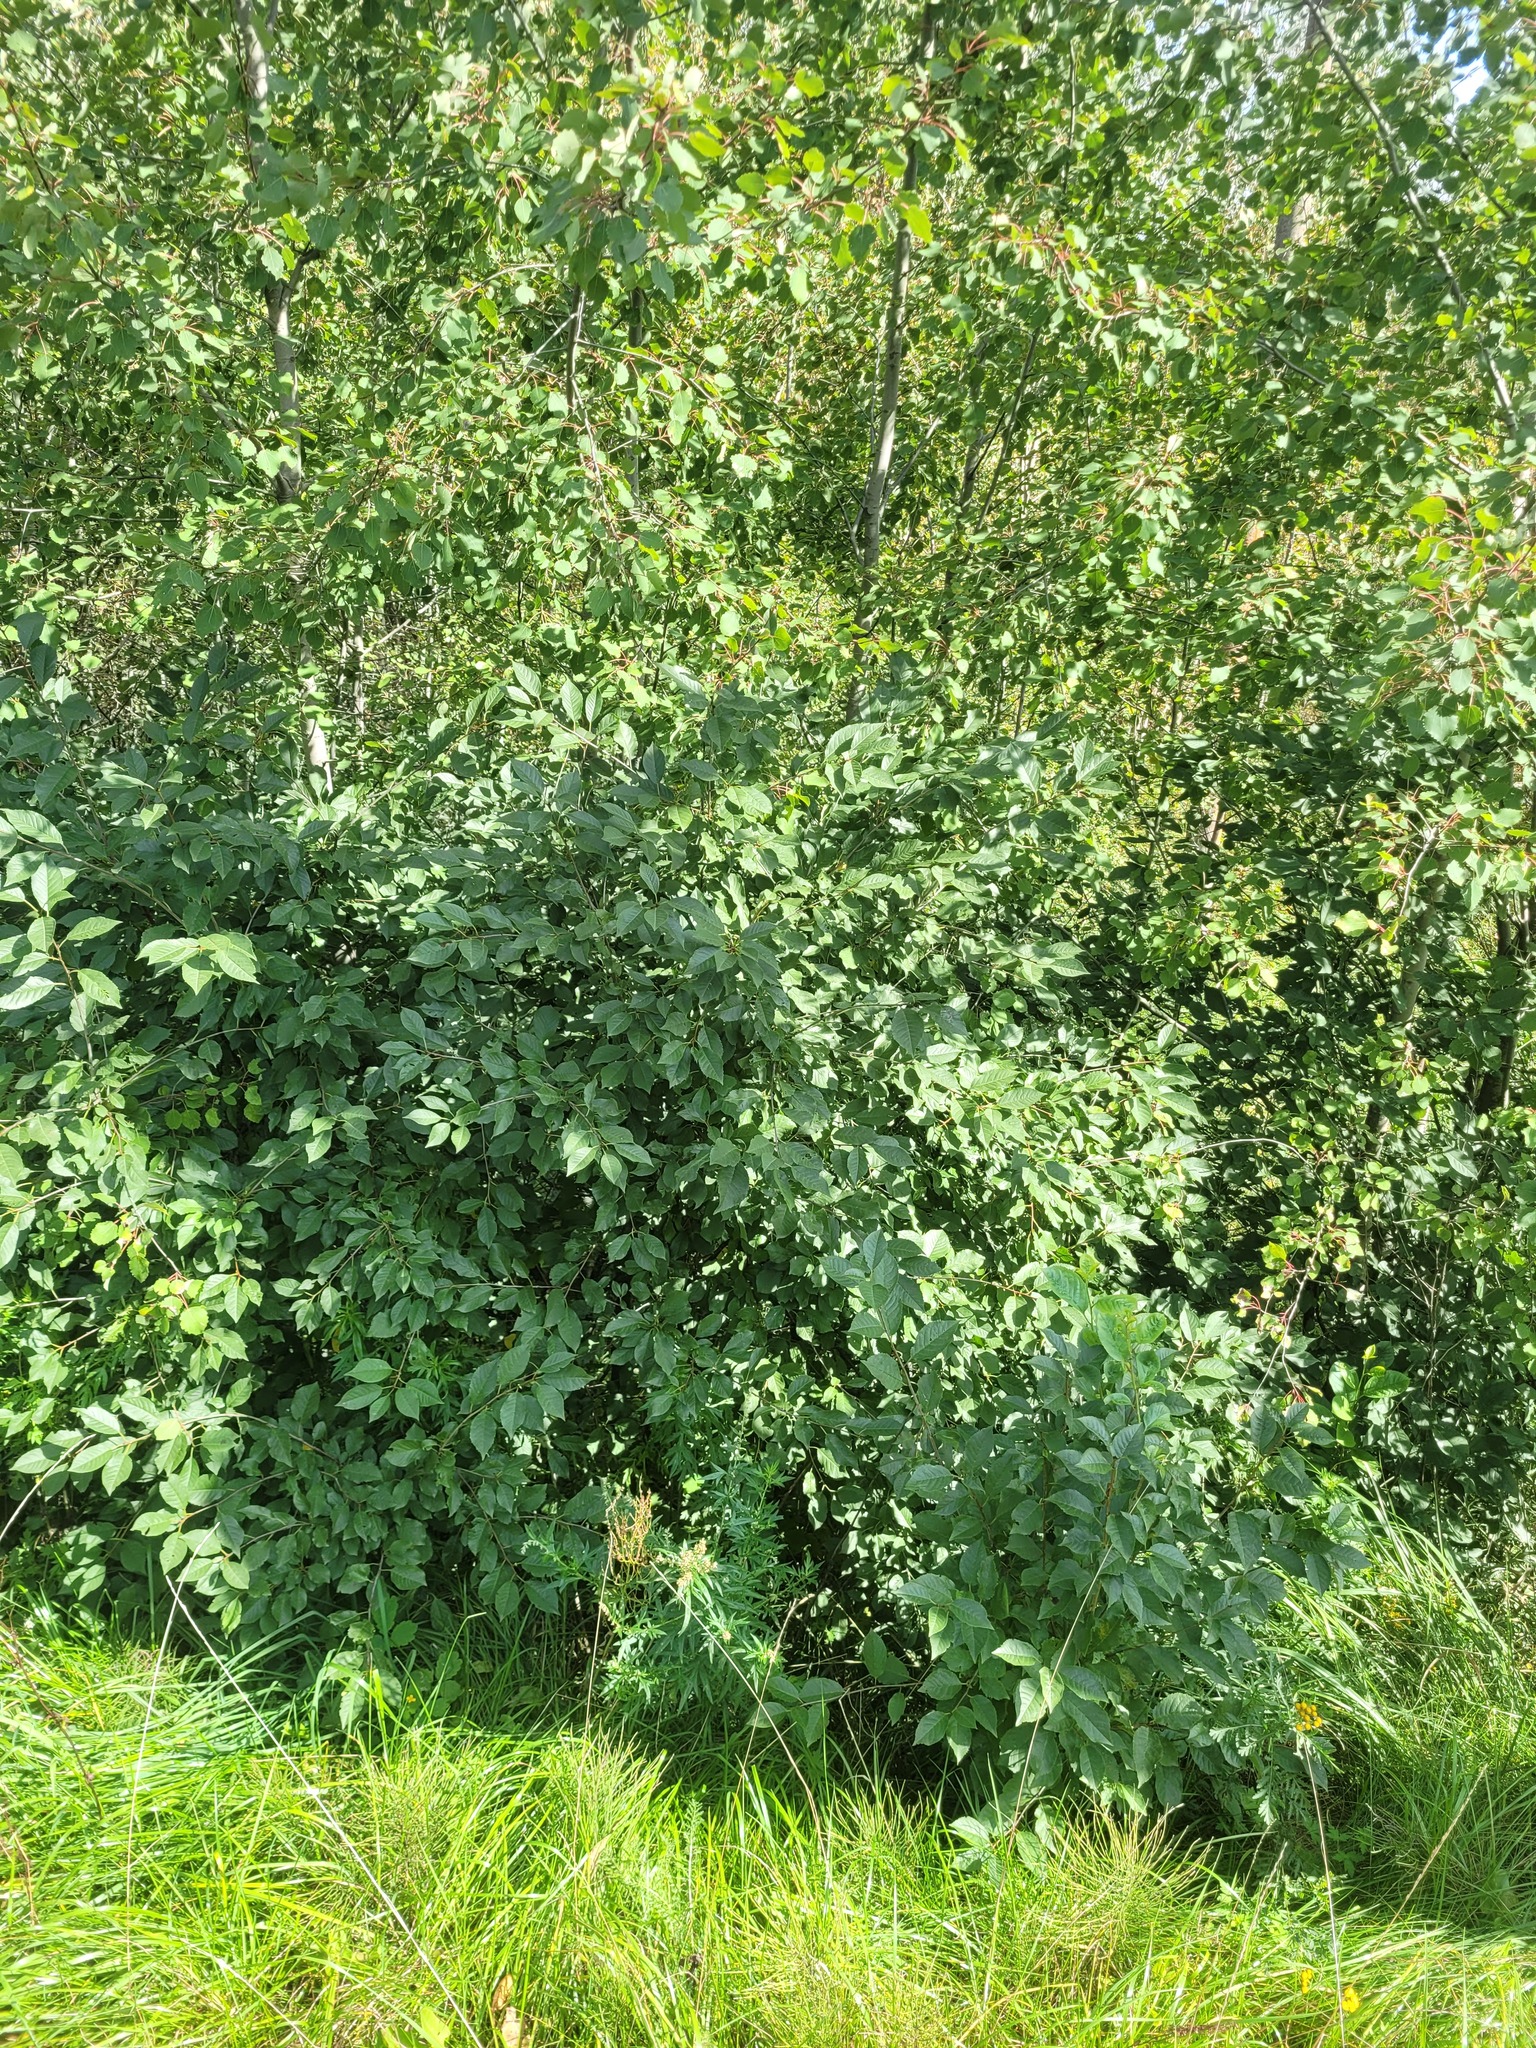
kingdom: Plantae
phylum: Tracheophyta
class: Magnoliopsida
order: Rosales
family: Rosaceae
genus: Prunus
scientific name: Prunus cerasus
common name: Morello cherry
